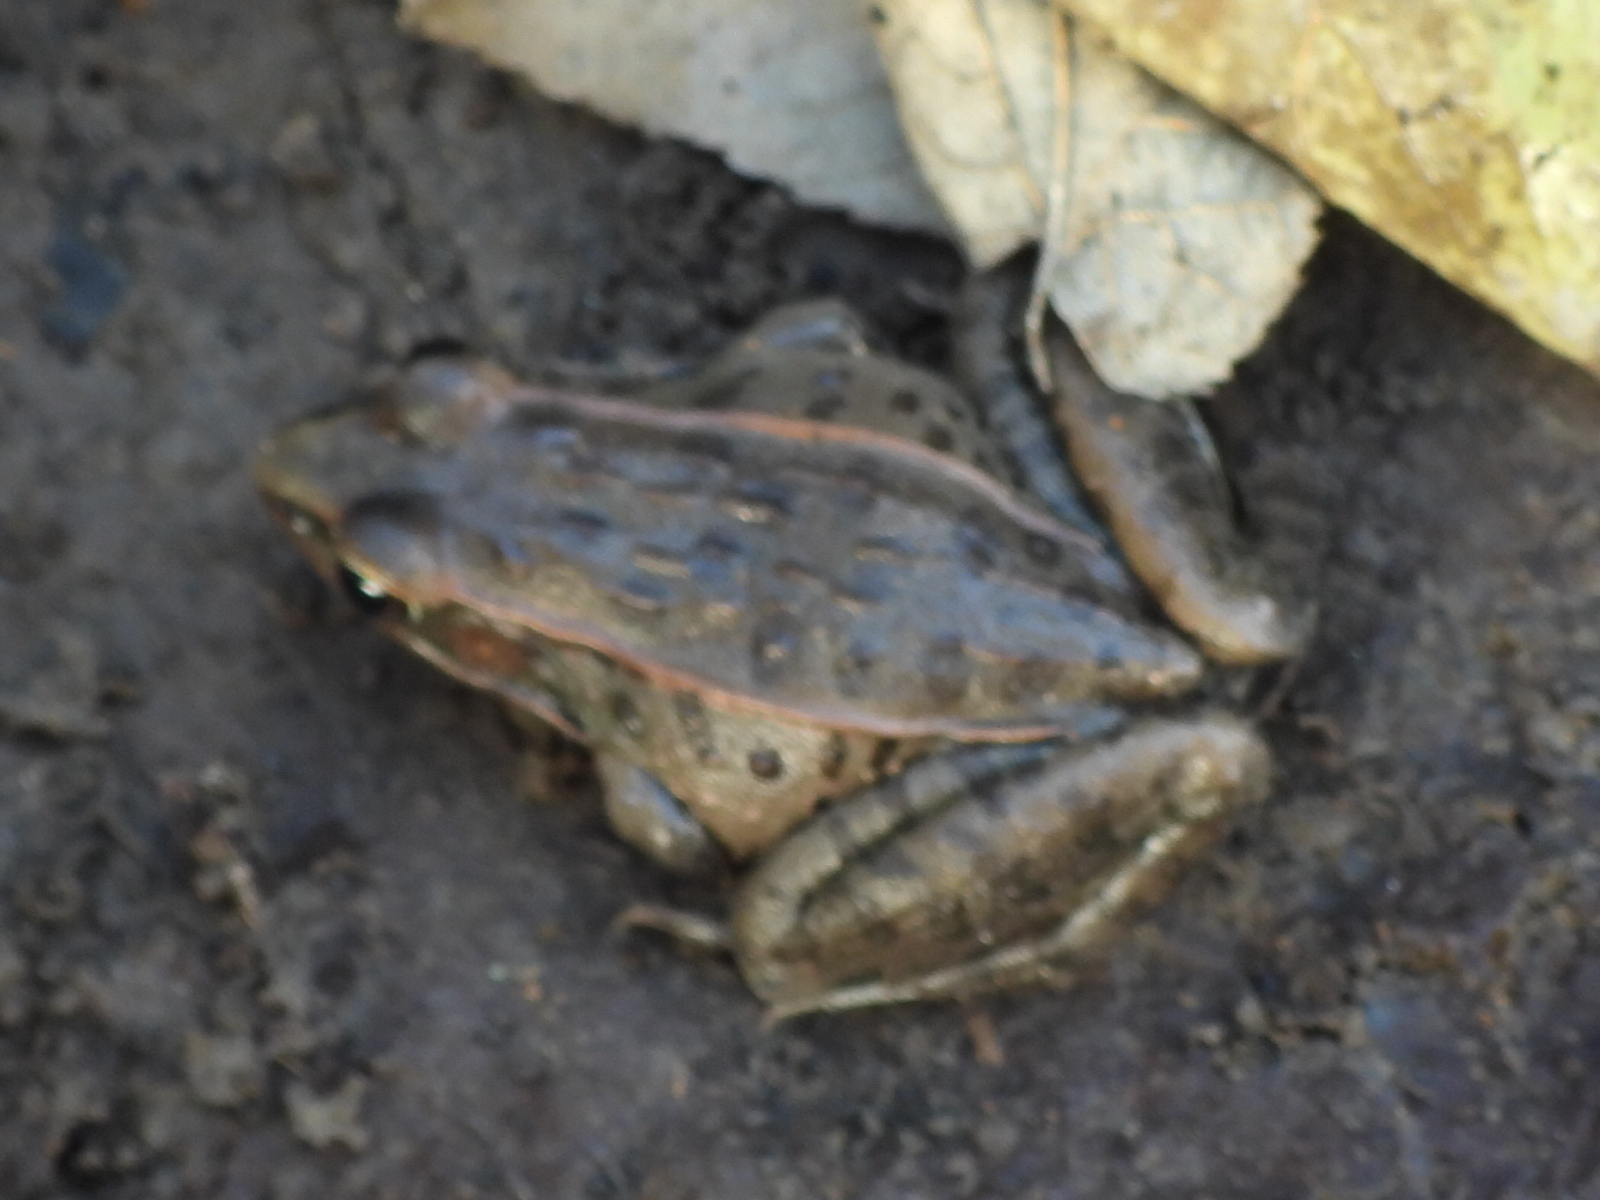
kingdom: Animalia
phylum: Chordata
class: Amphibia
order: Anura
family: Ranidae
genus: Lithobates
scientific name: Lithobates sphenocephalus
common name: Southern leopard frog
